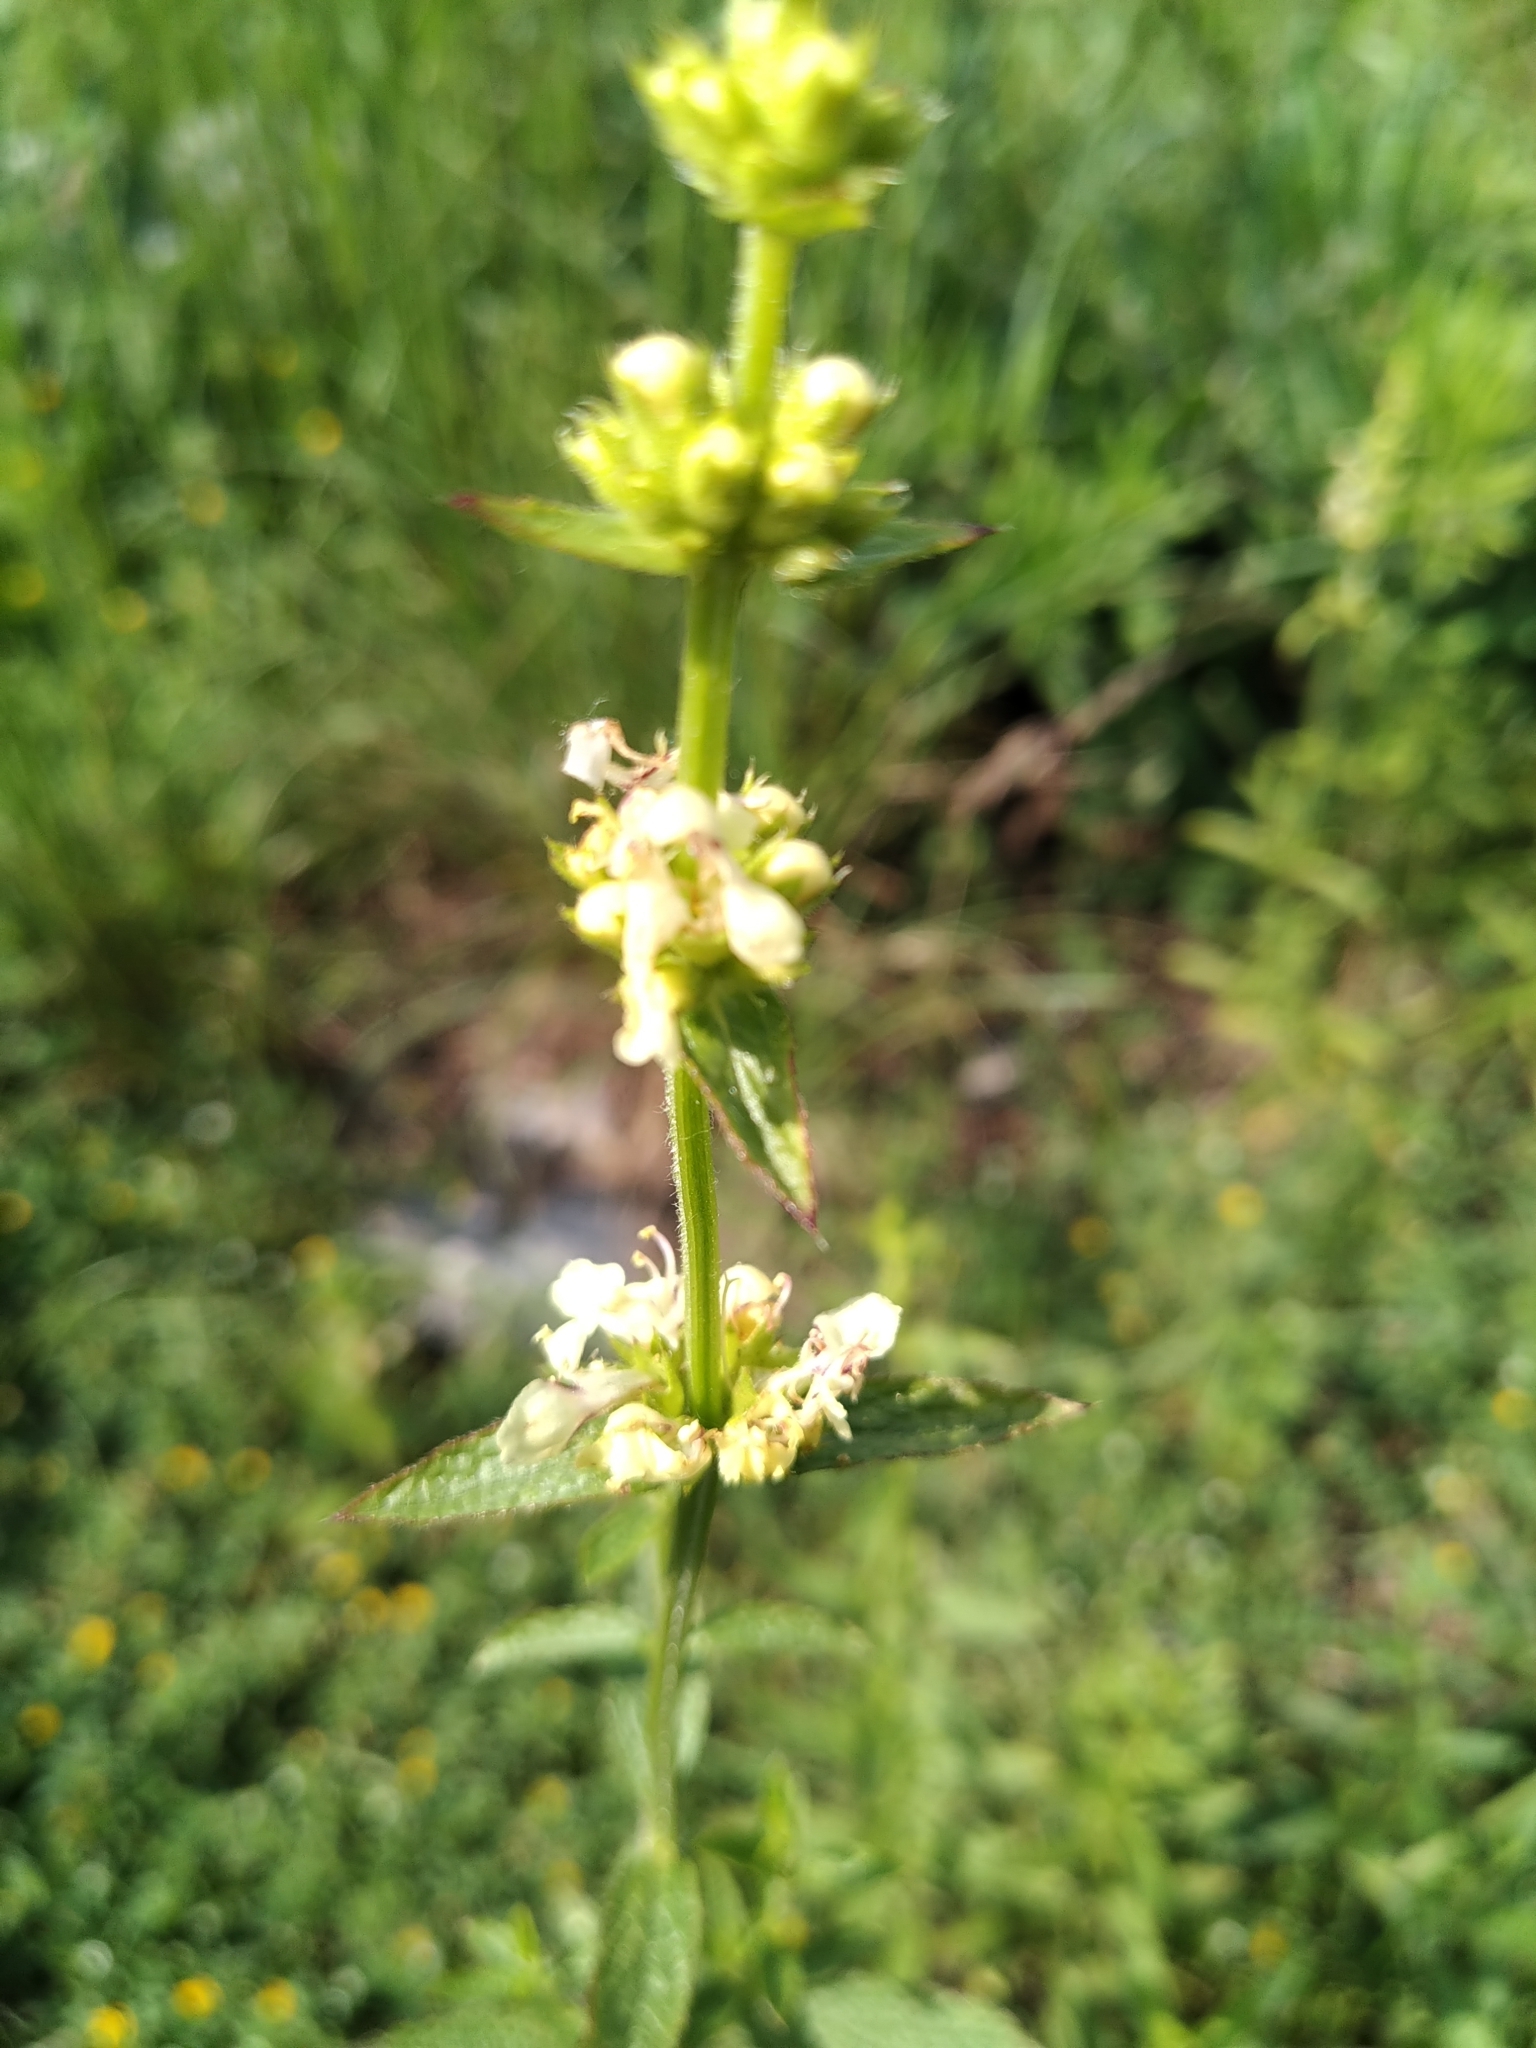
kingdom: Plantae
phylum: Tracheophyta
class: Magnoliopsida
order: Lamiales
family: Lamiaceae
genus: Stachys
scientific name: Stachys recta
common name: Perennial yellow-woundwort
